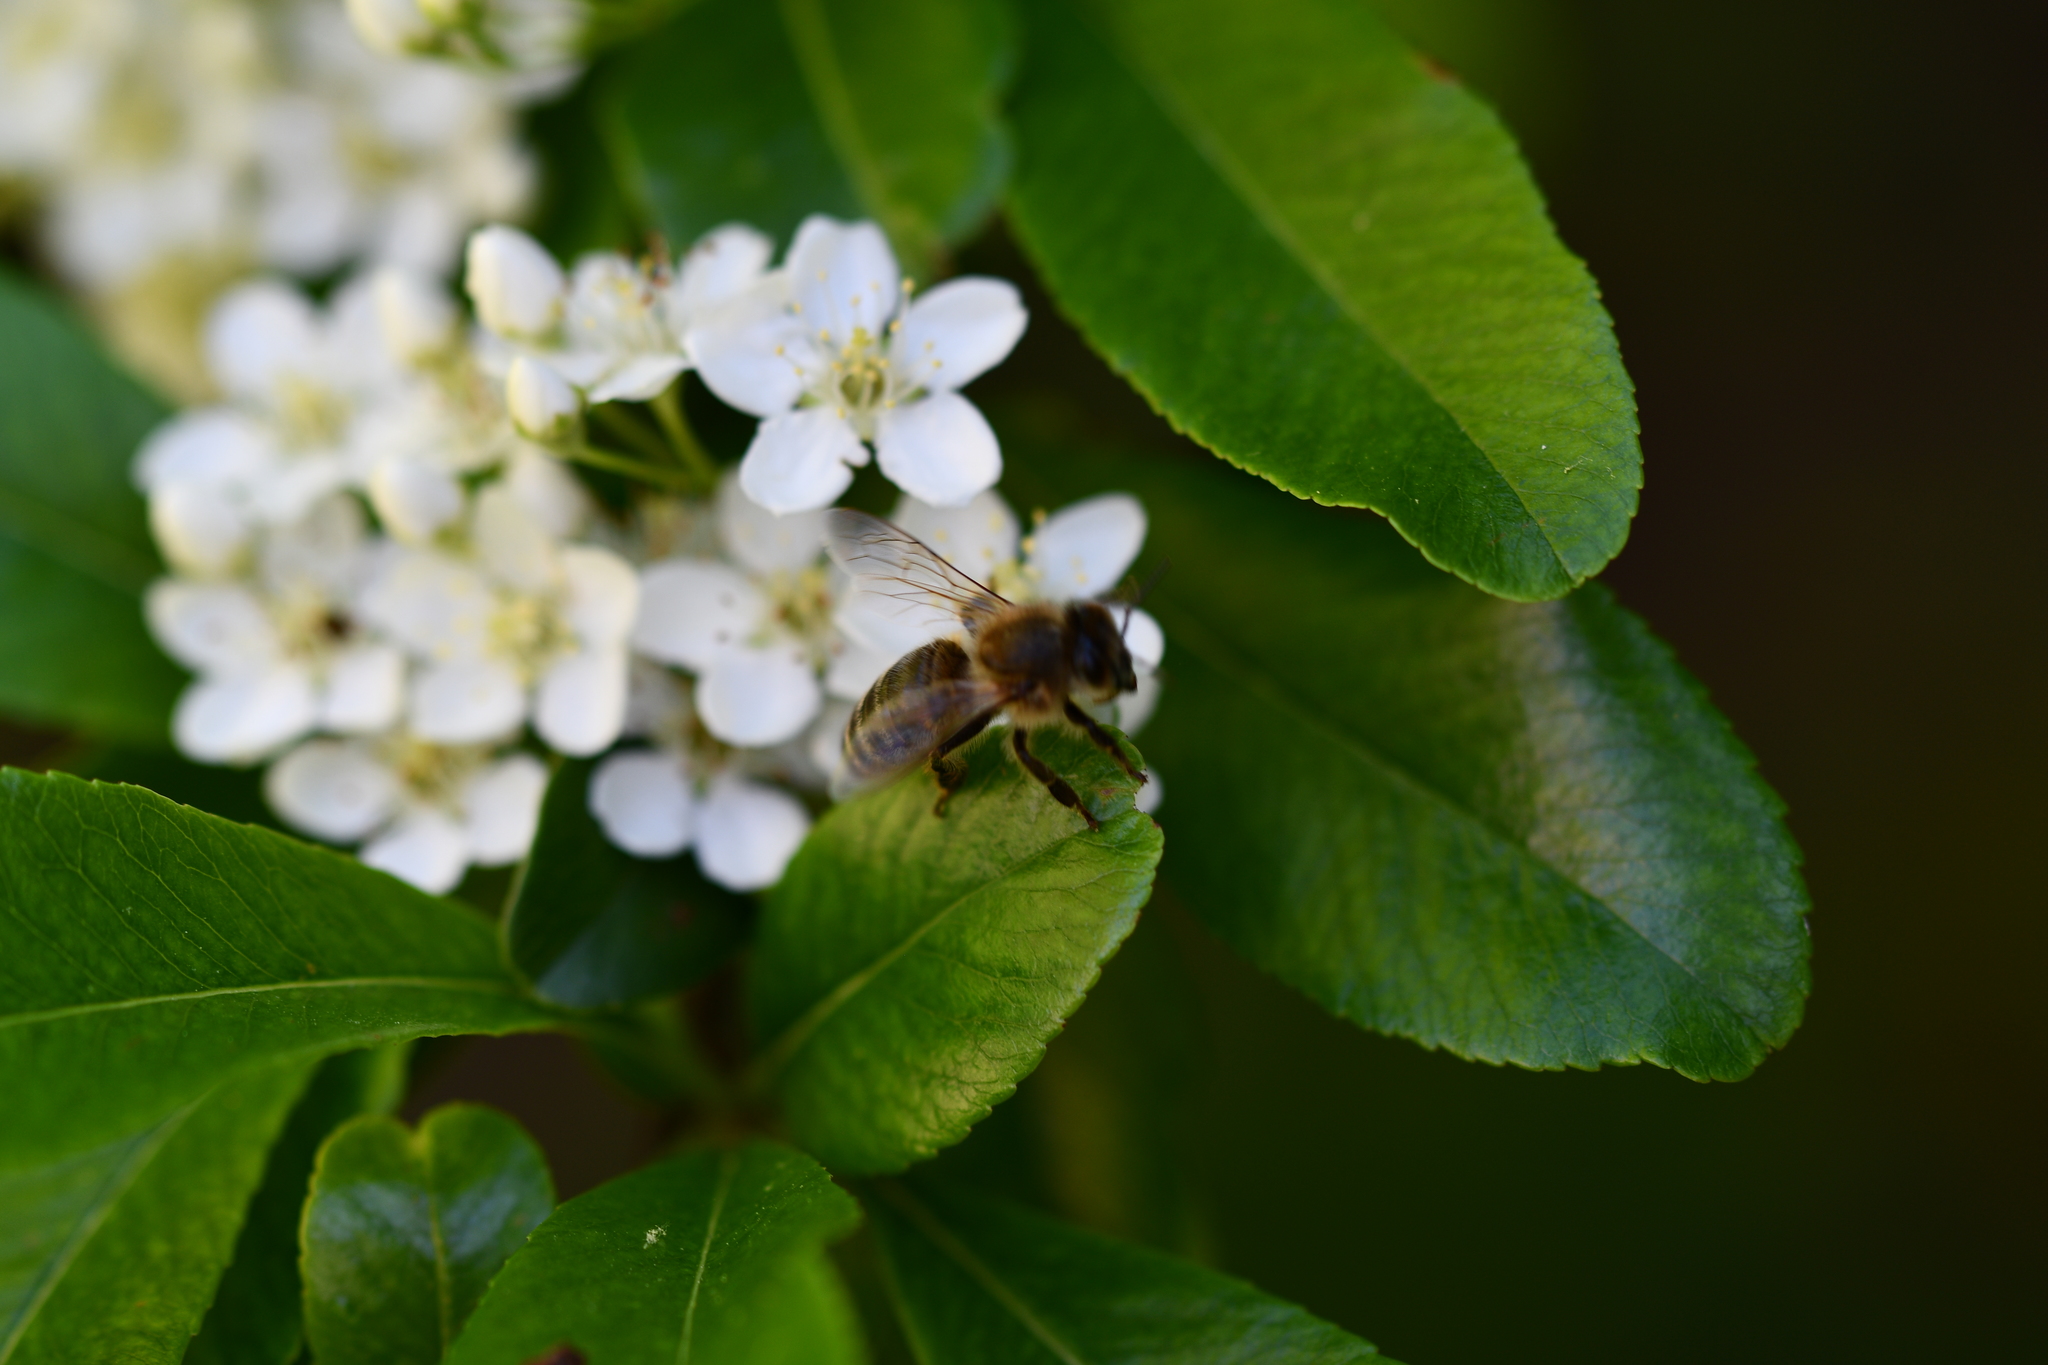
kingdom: Animalia
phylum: Arthropoda
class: Insecta
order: Hymenoptera
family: Apidae
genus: Apis
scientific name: Apis mellifera
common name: Honey bee
